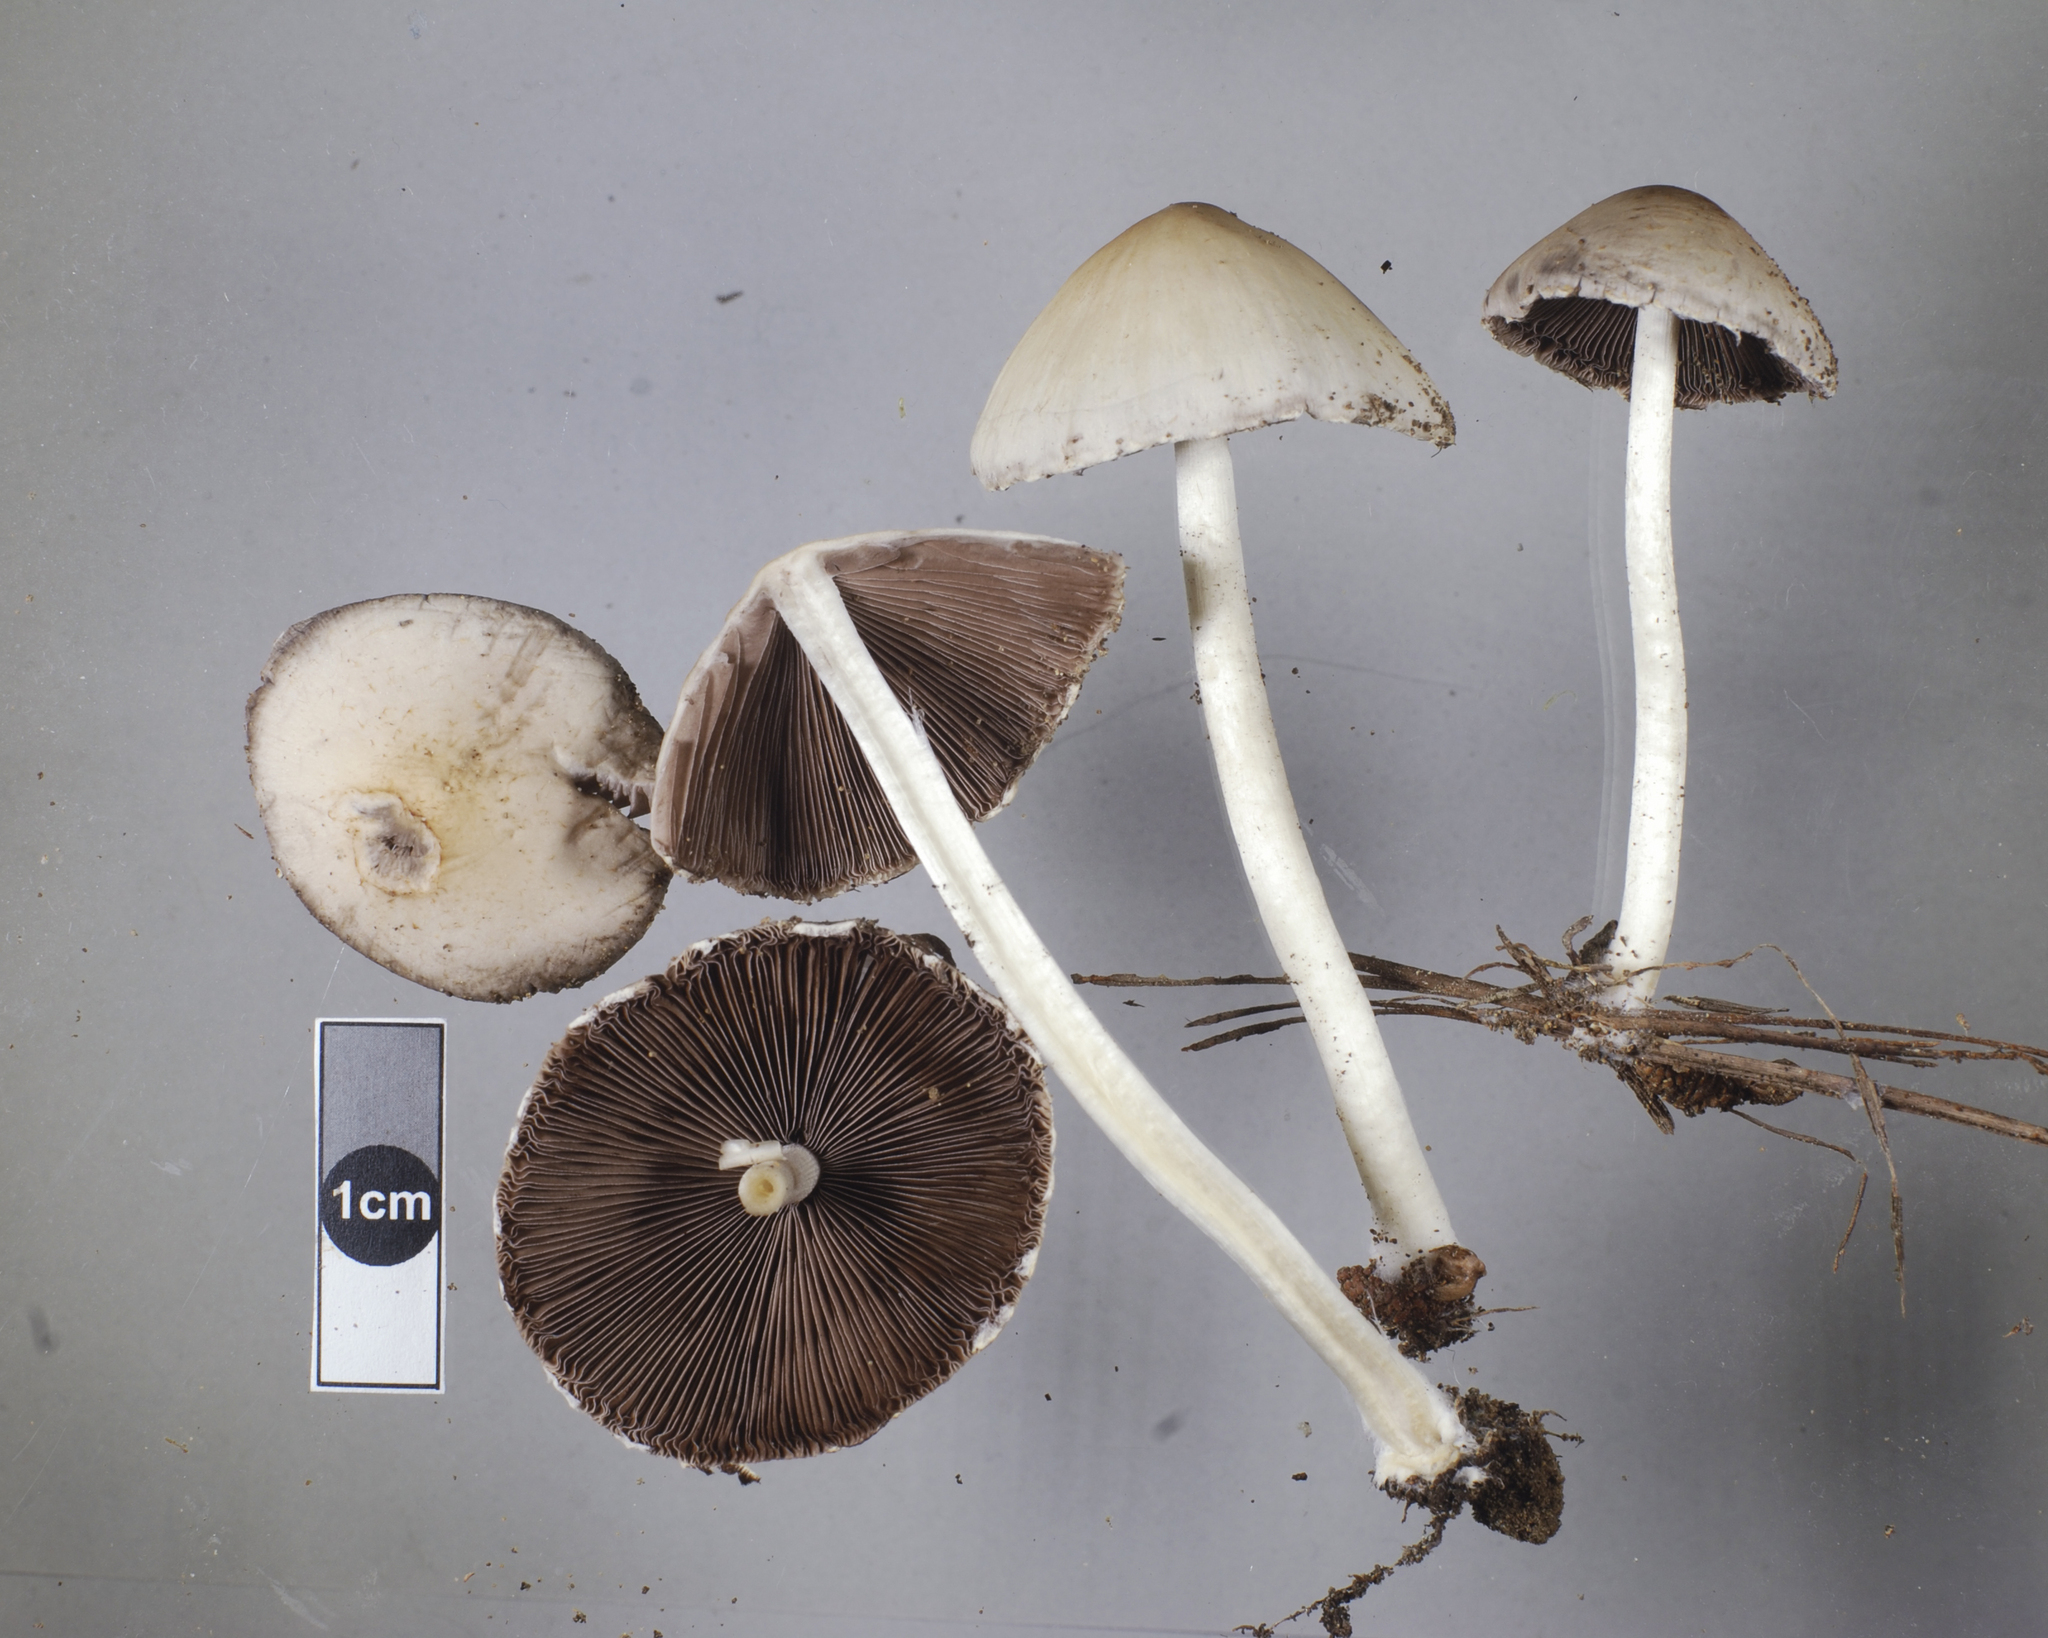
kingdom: Fungi
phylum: Basidiomycota
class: Agaricomycetes
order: Agaricales
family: Psathyrellaceae
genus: Candolleomyces
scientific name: Candolleomyces candolleanus
